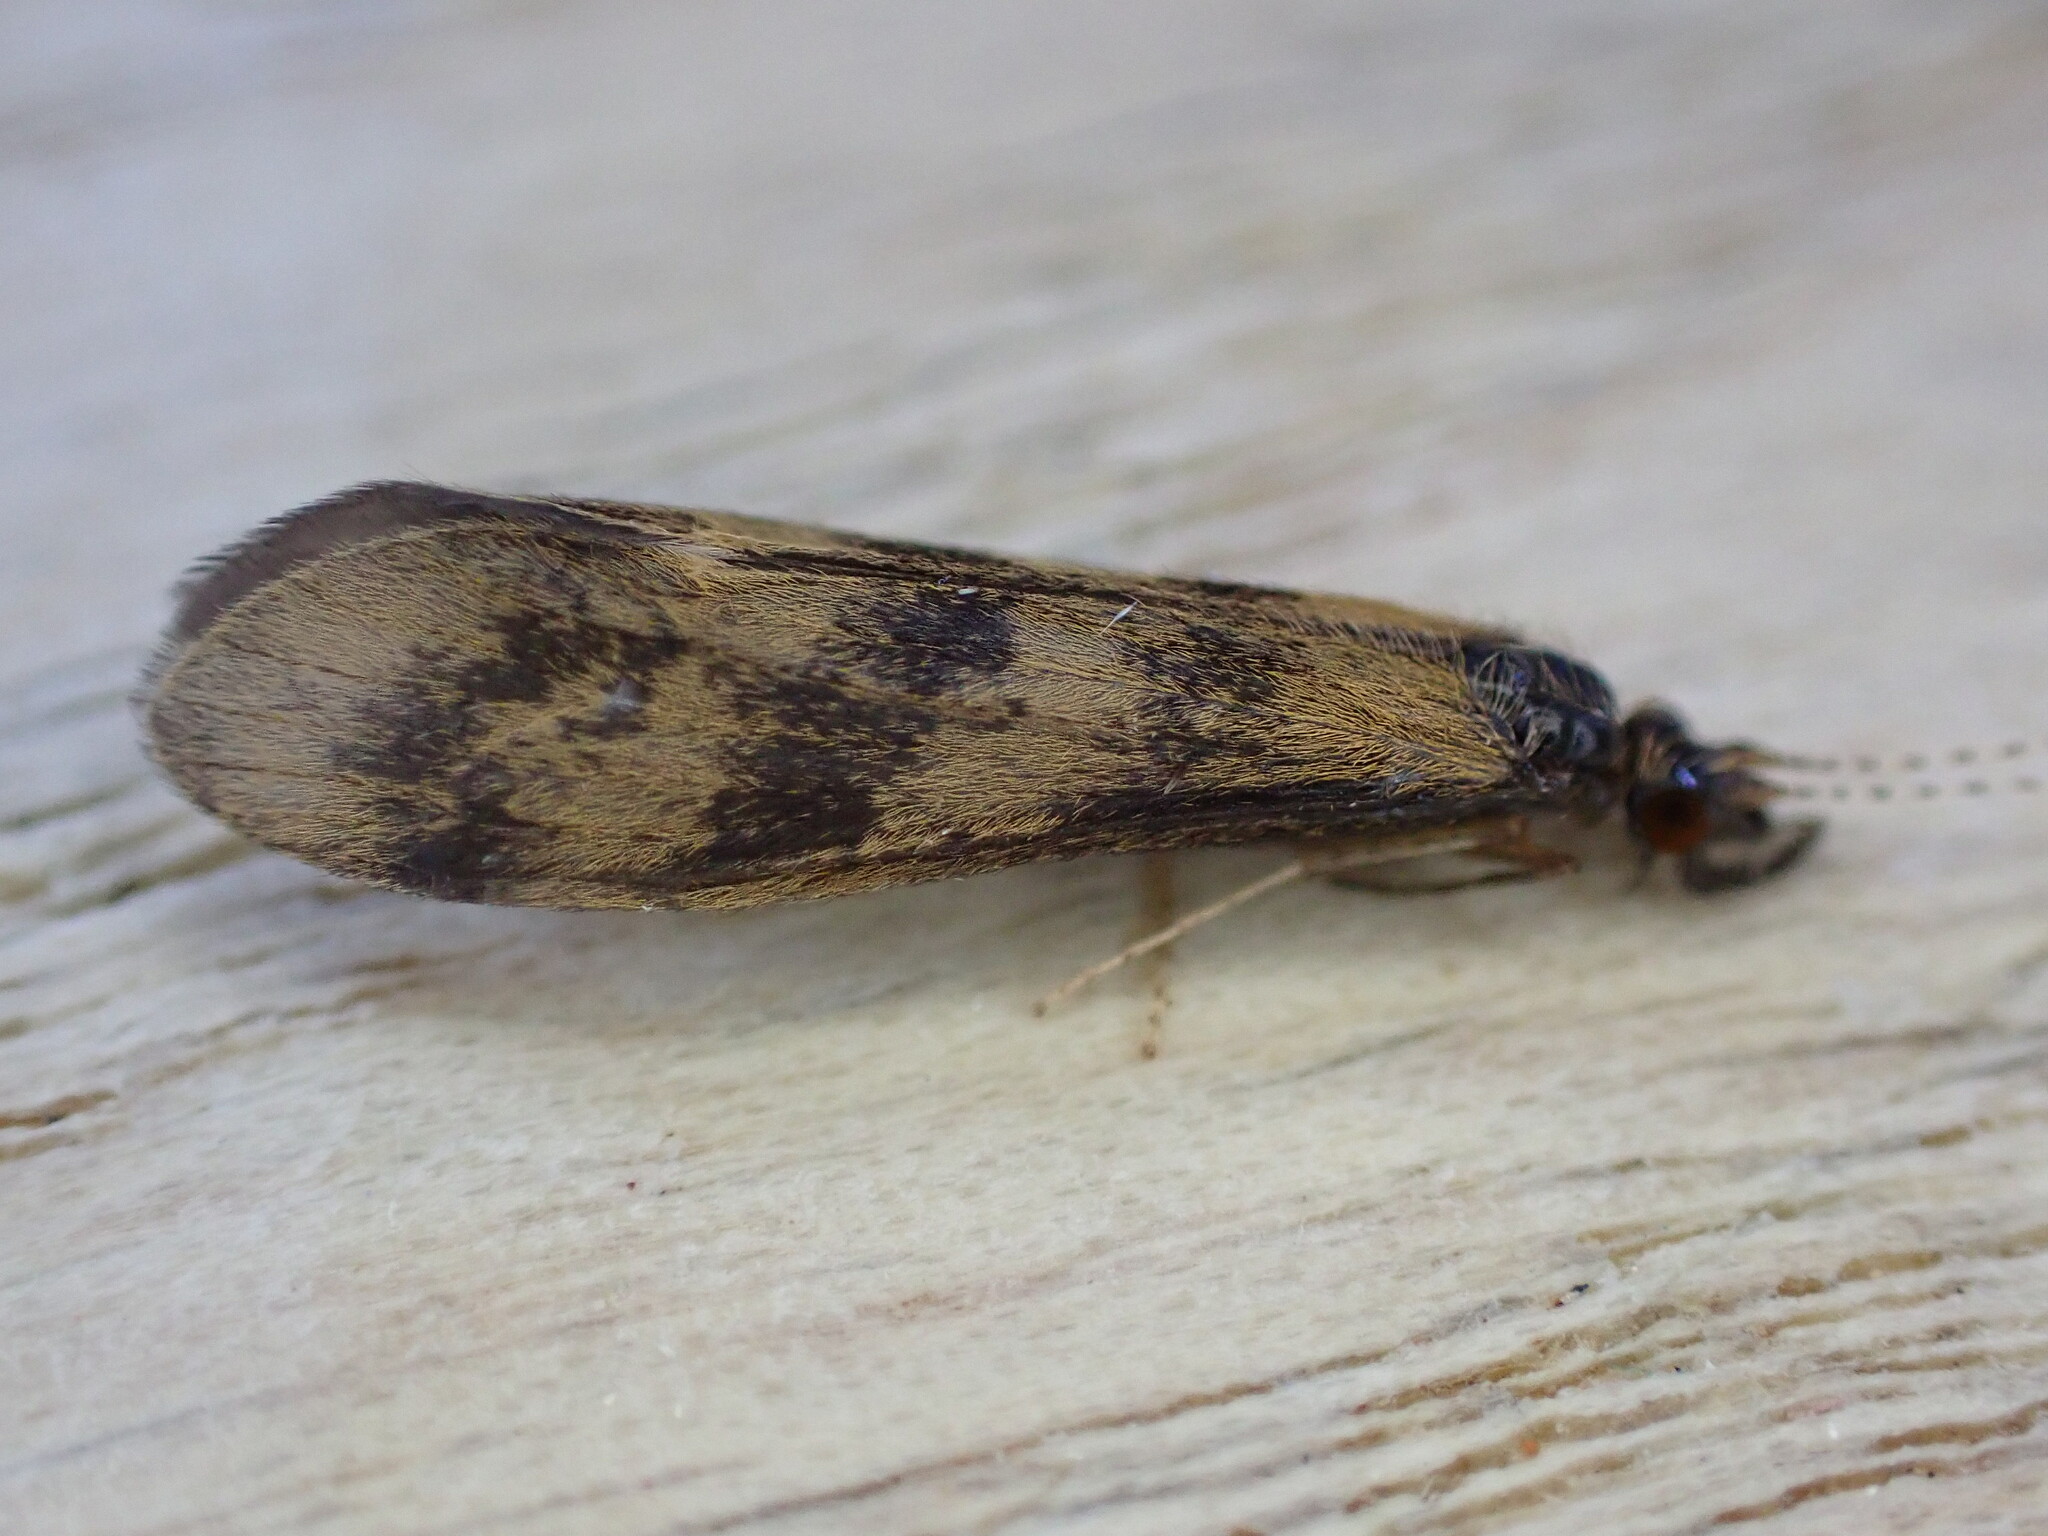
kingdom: Animalia
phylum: Arthropoda
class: Insecta
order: Trichoptera
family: Leptoceridae
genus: Mystacides
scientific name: Mystacides longicornis
